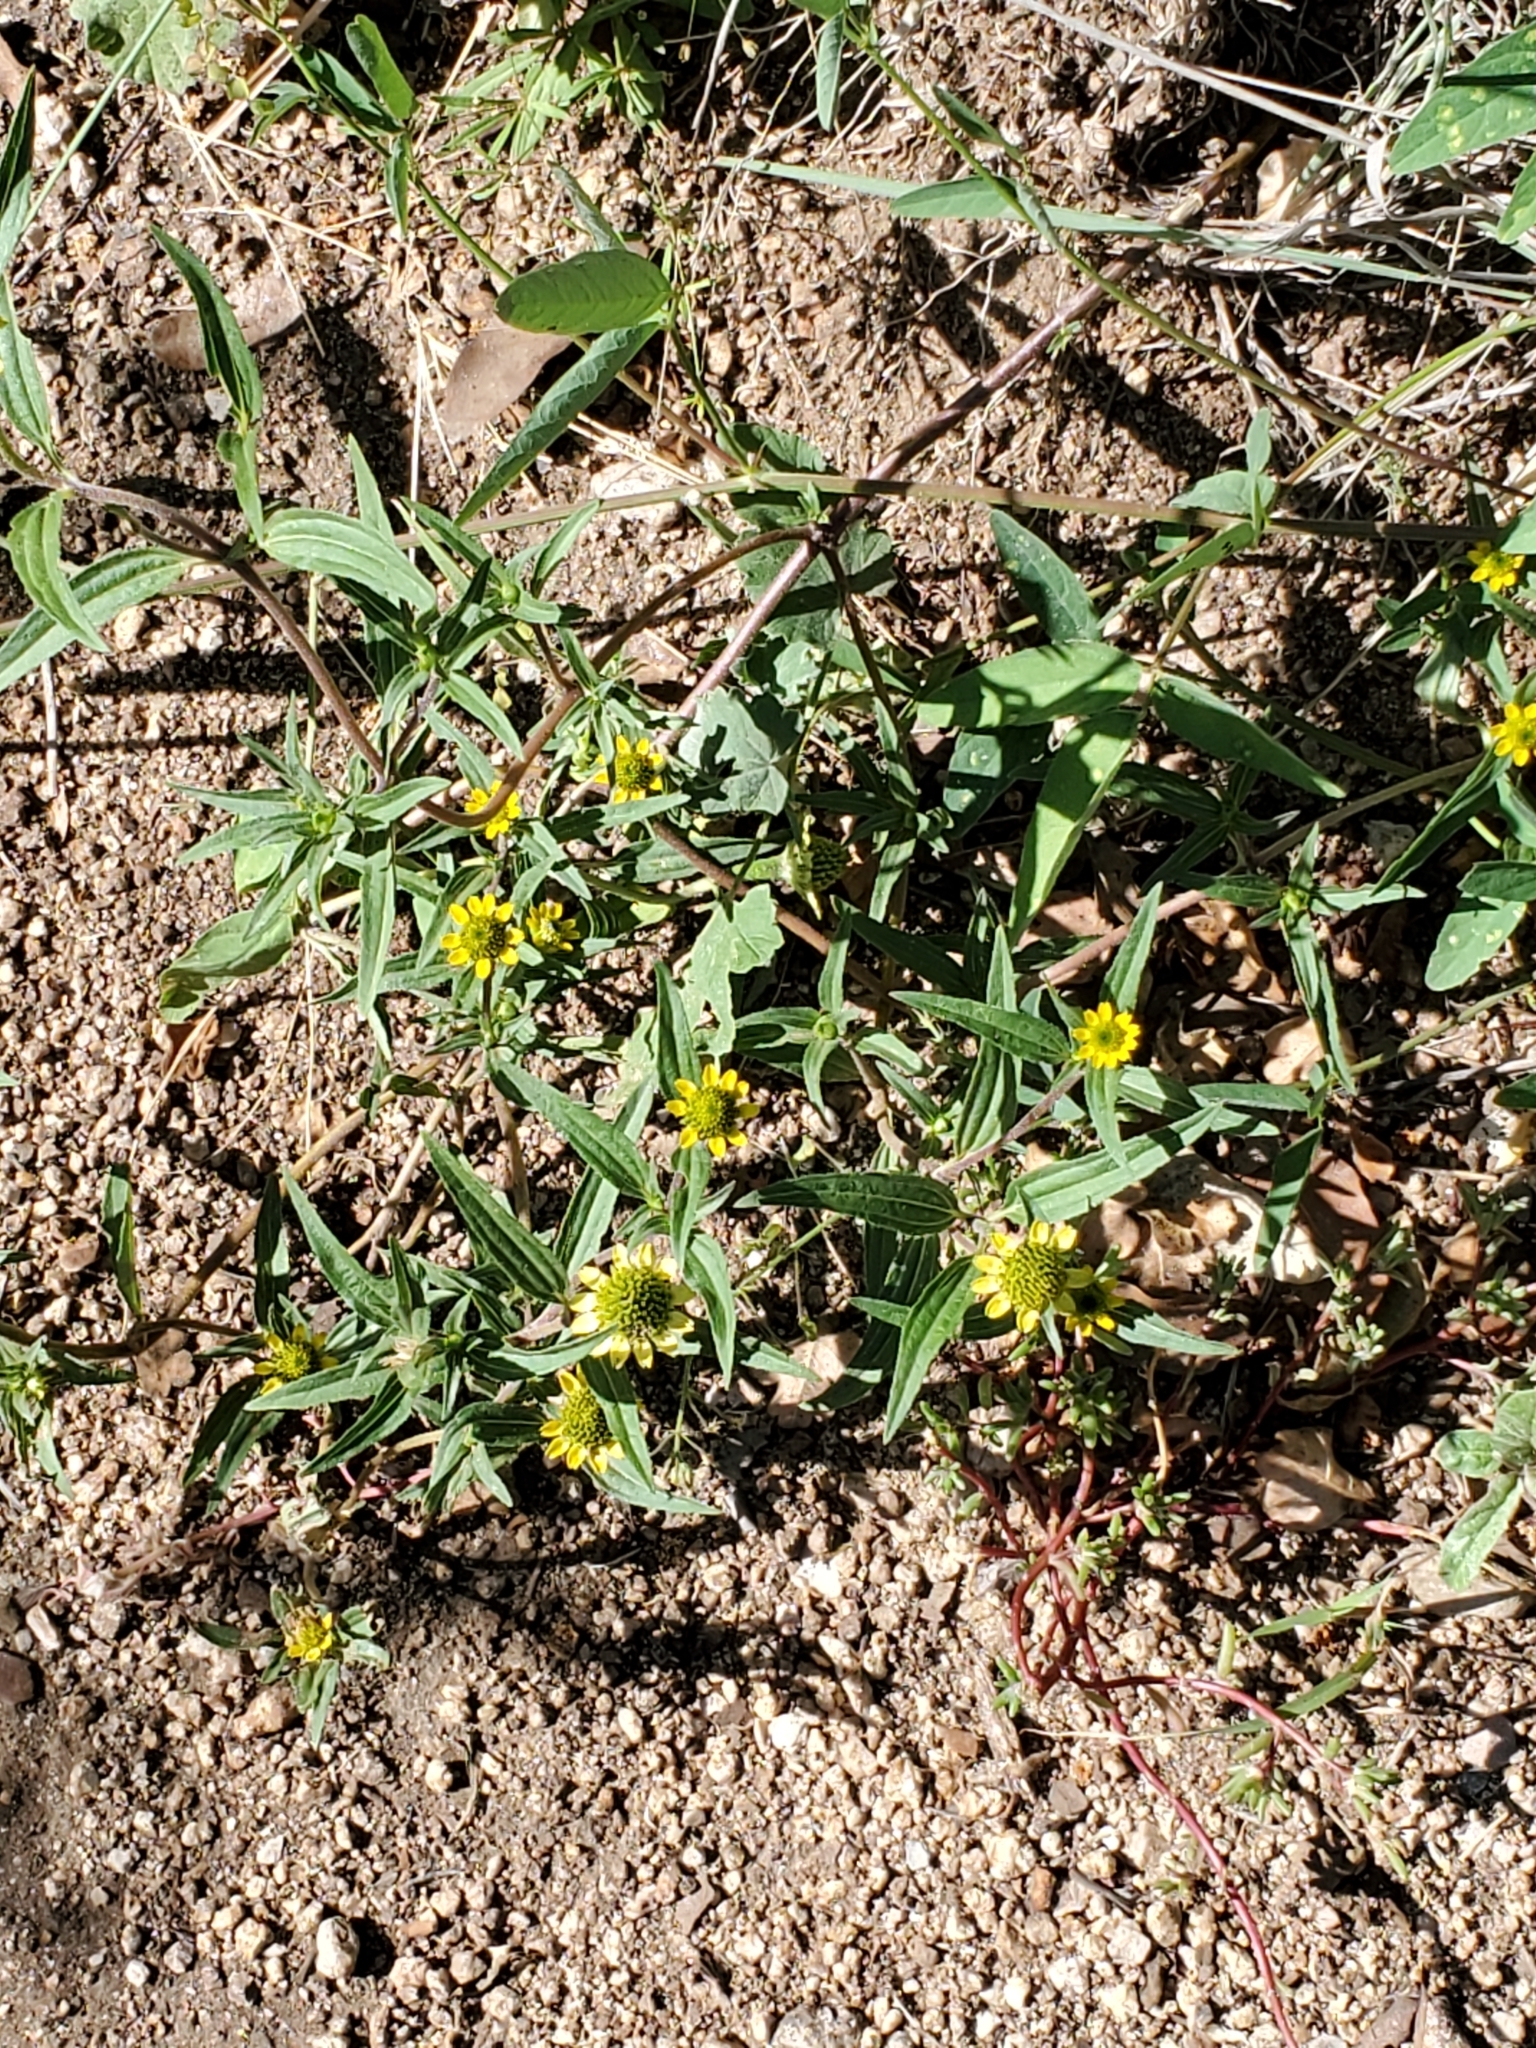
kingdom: Plantae
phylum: Tracheophyta
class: Magnoliopsida
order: Asterales
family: Asteraceae
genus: Sanvitalia
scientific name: Sanvitalia abertii
